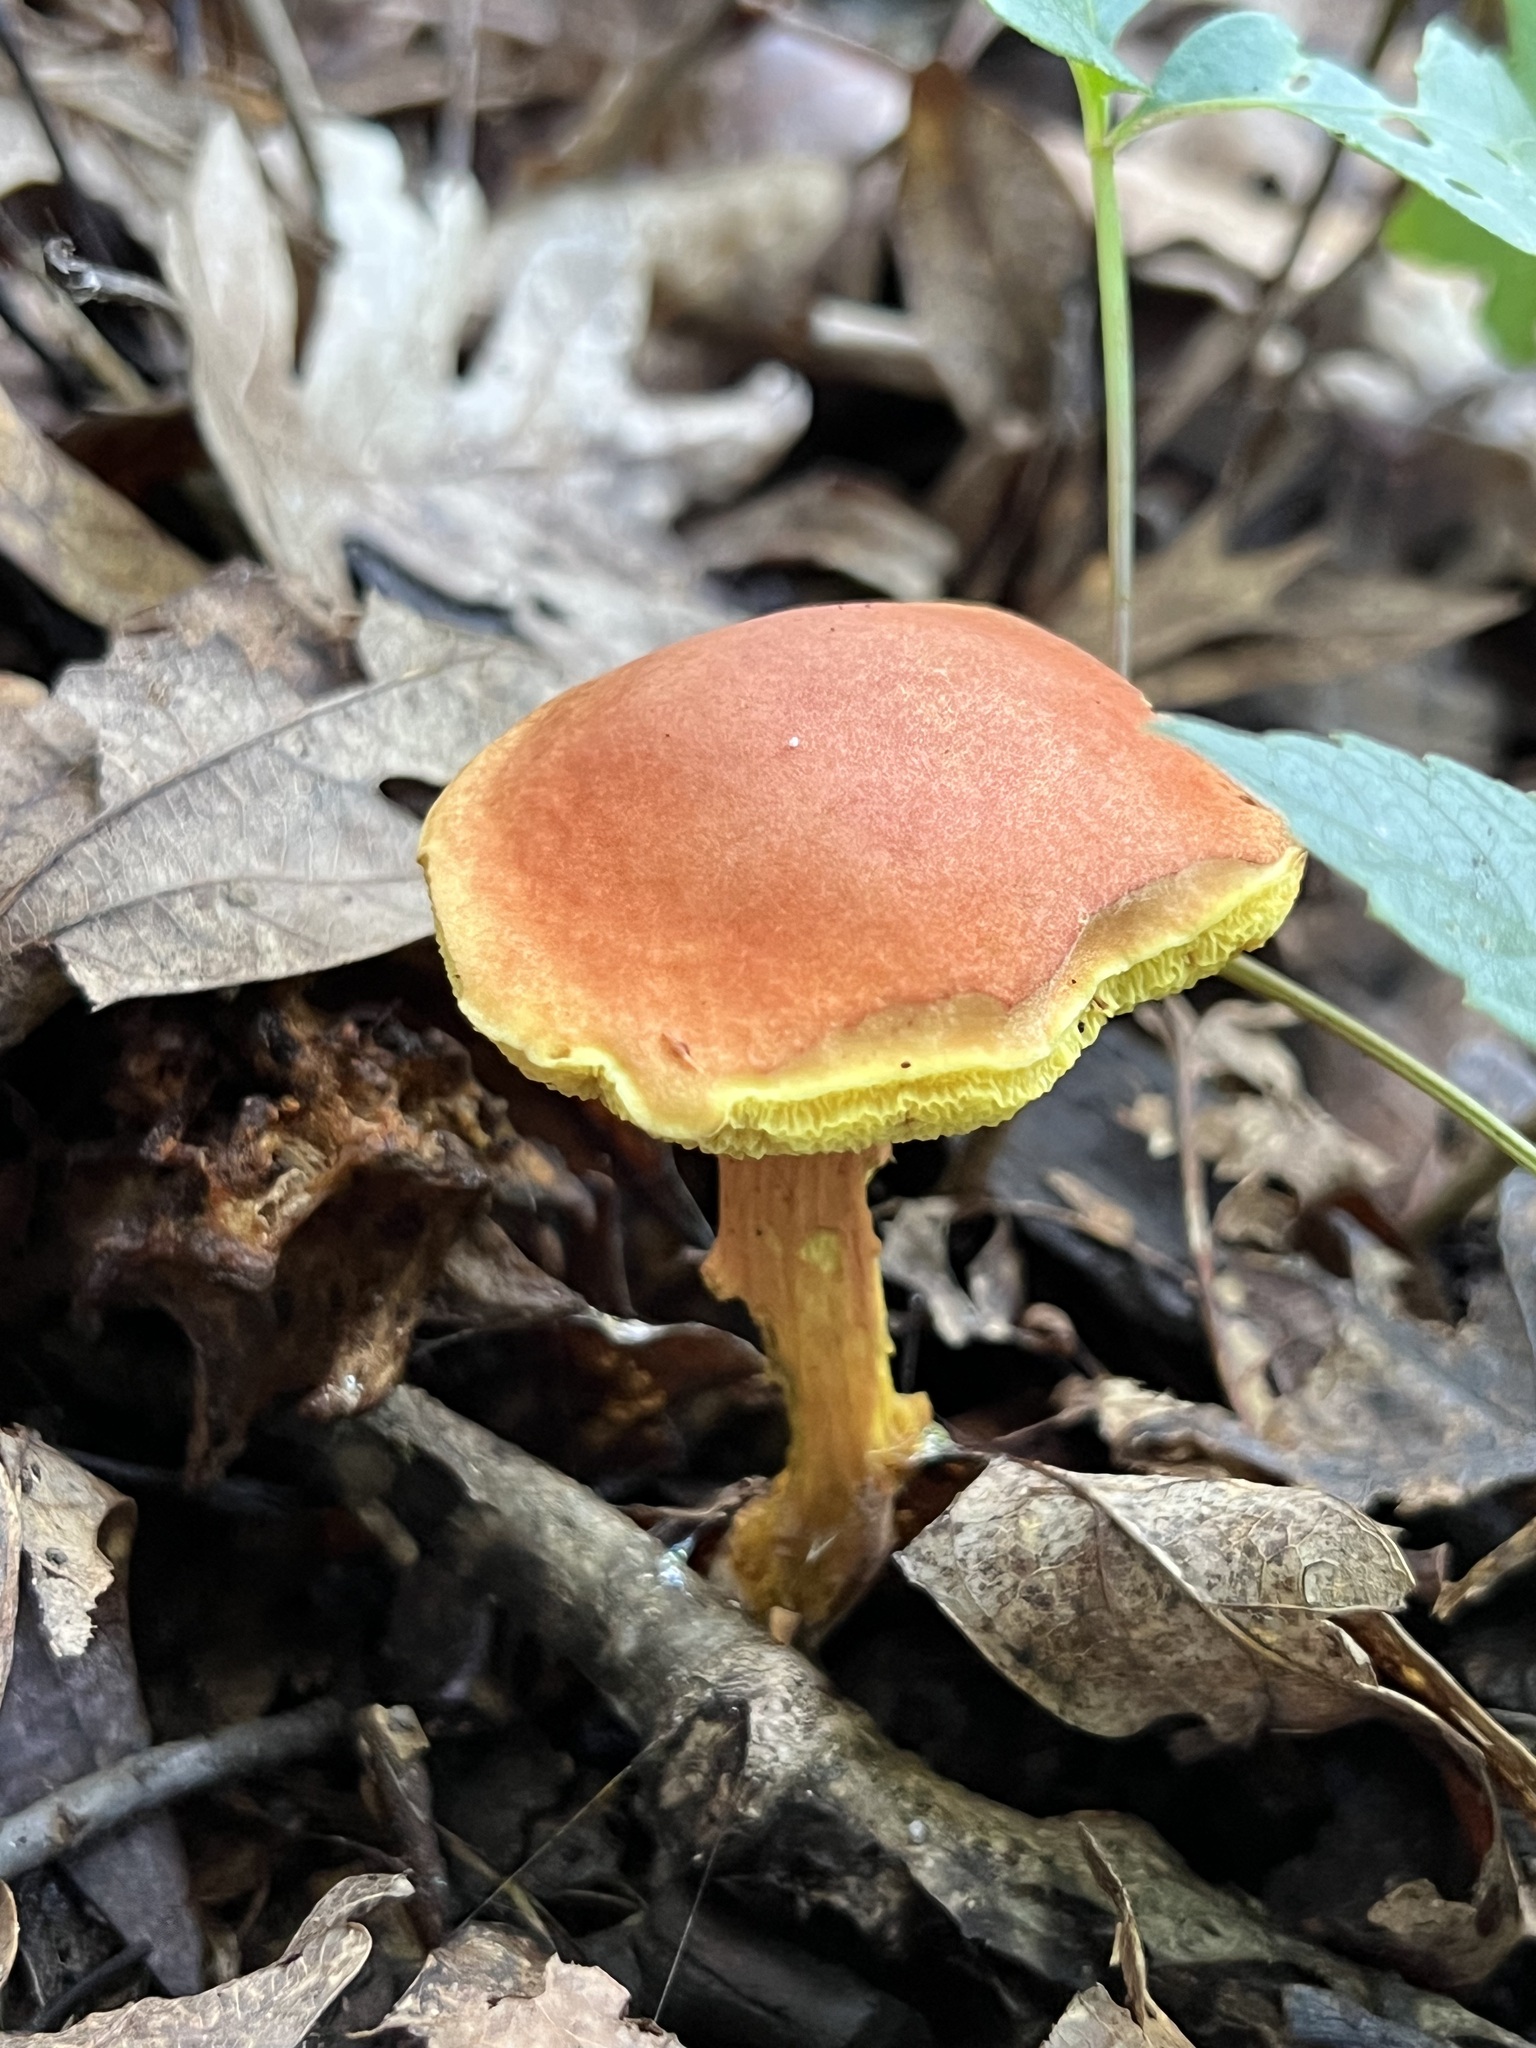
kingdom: Fungi
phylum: Basidiomycota
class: Agaricomycetes
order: Boletales
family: Boletaceae
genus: Hortiboletus
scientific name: Hortiboletus rubellus
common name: Ruby bolete
